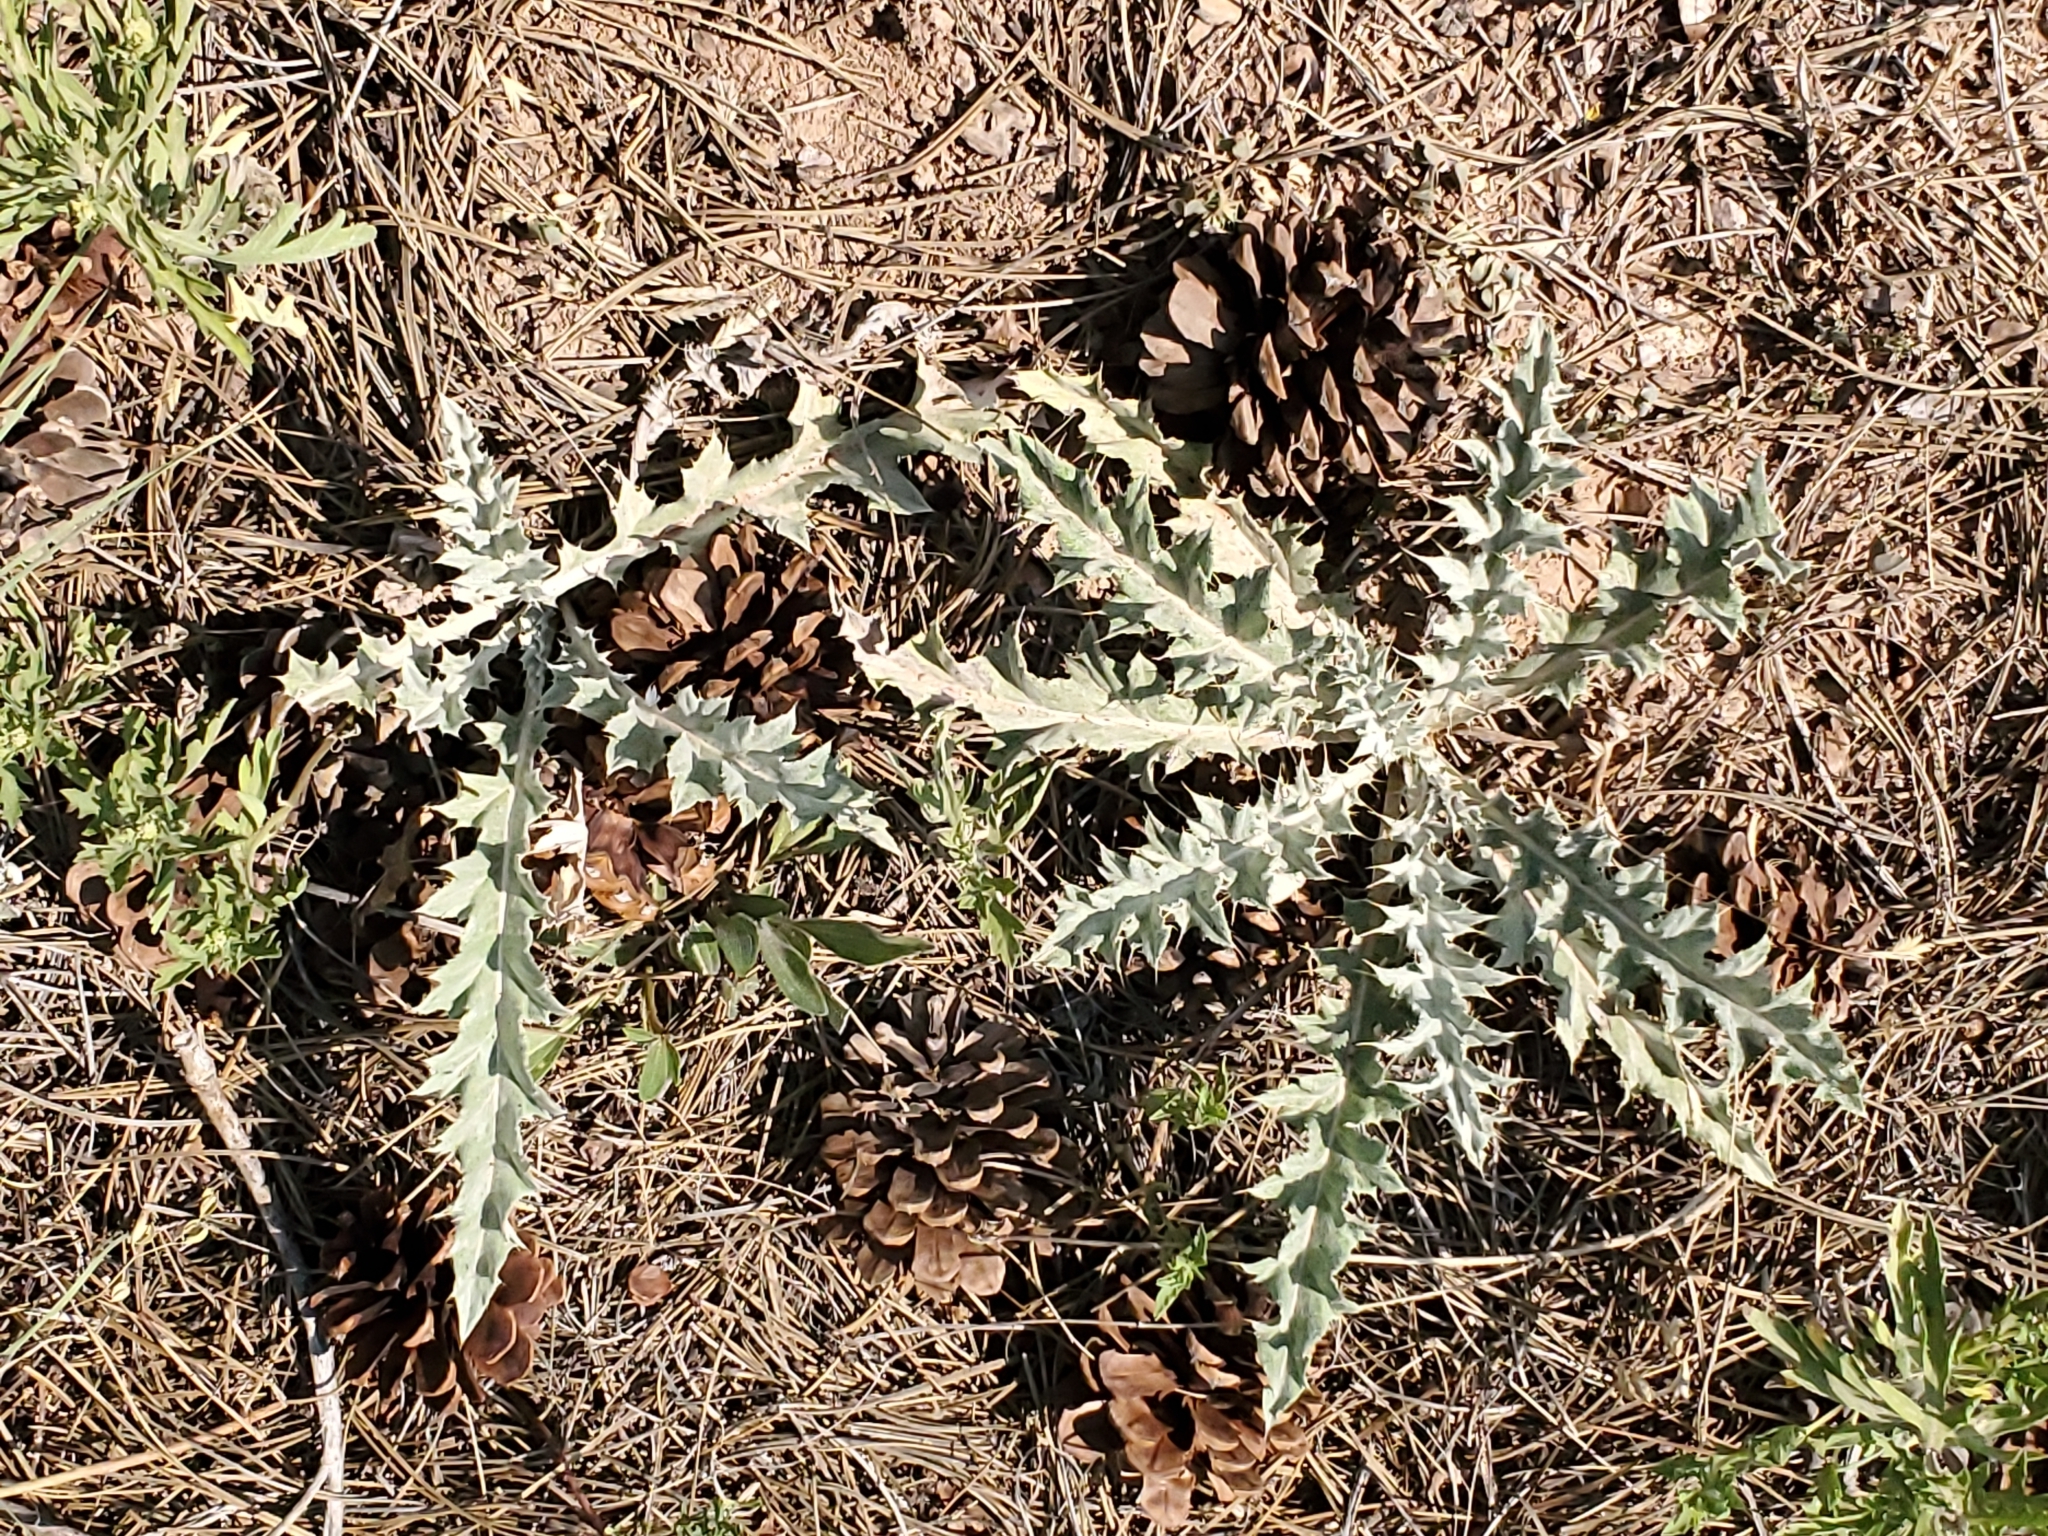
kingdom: Plantae
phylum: Tracheophyta
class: Magnoliopsida
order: Asterales
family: Asteraceae
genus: Cirsium
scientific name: Cirsium undulatum
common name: Pasture thistle
